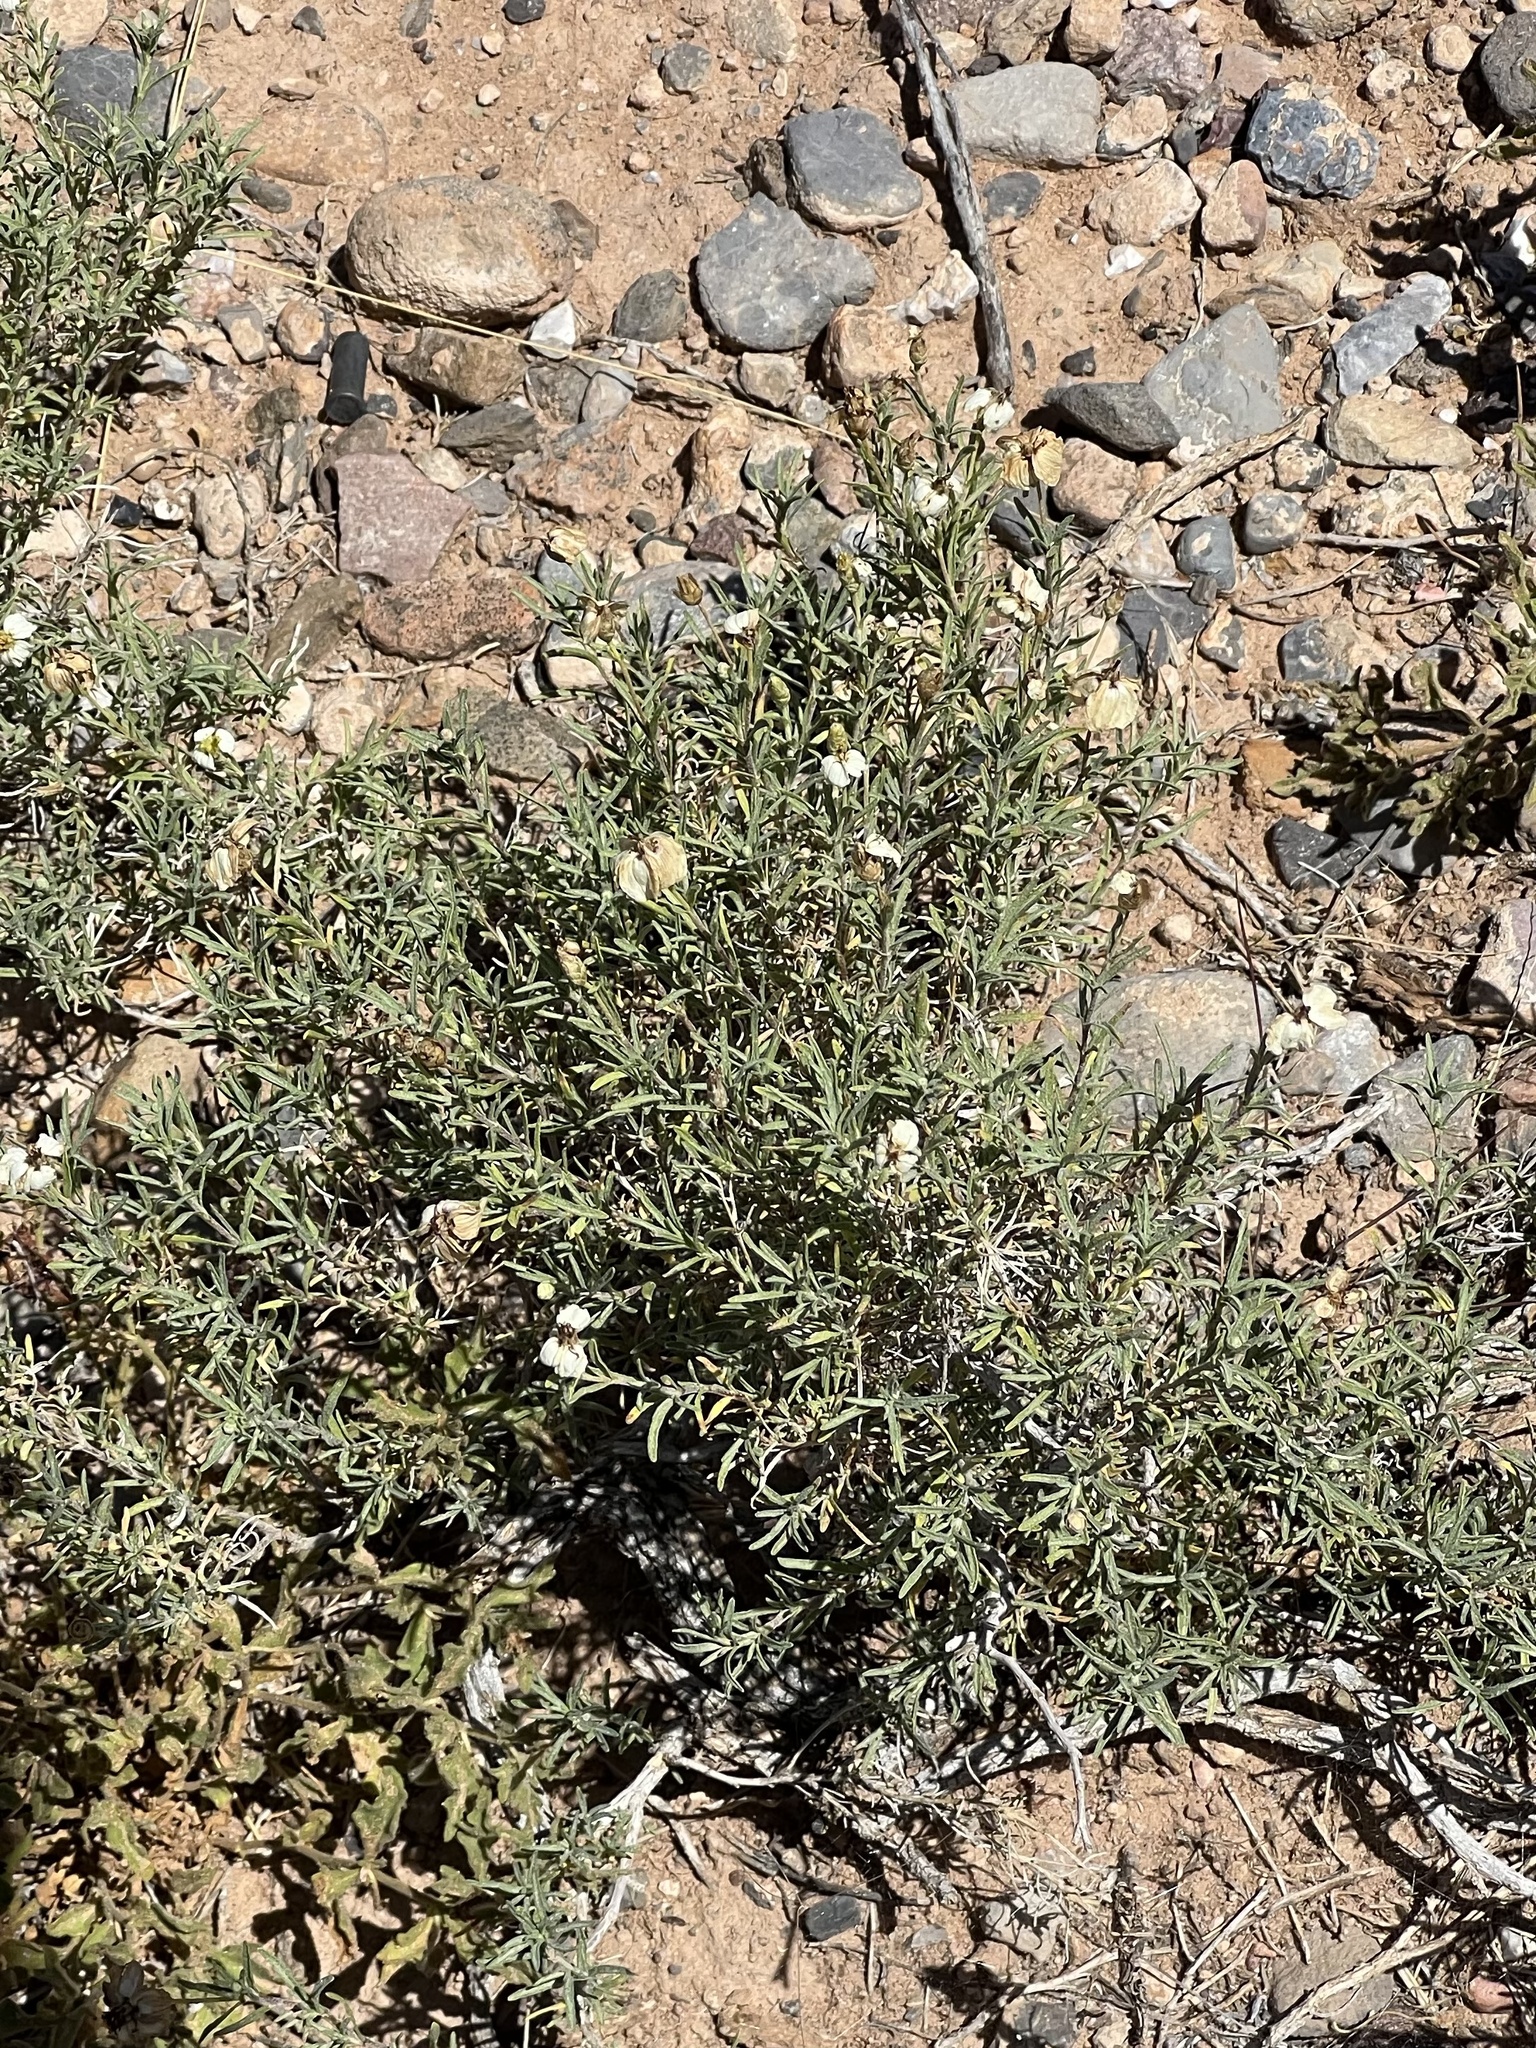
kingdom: Plantae
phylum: Tracheophyta
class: Magnoliopsida
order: Asterales
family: Asteraceae
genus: Zinnia
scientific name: Zinnia acerosa
